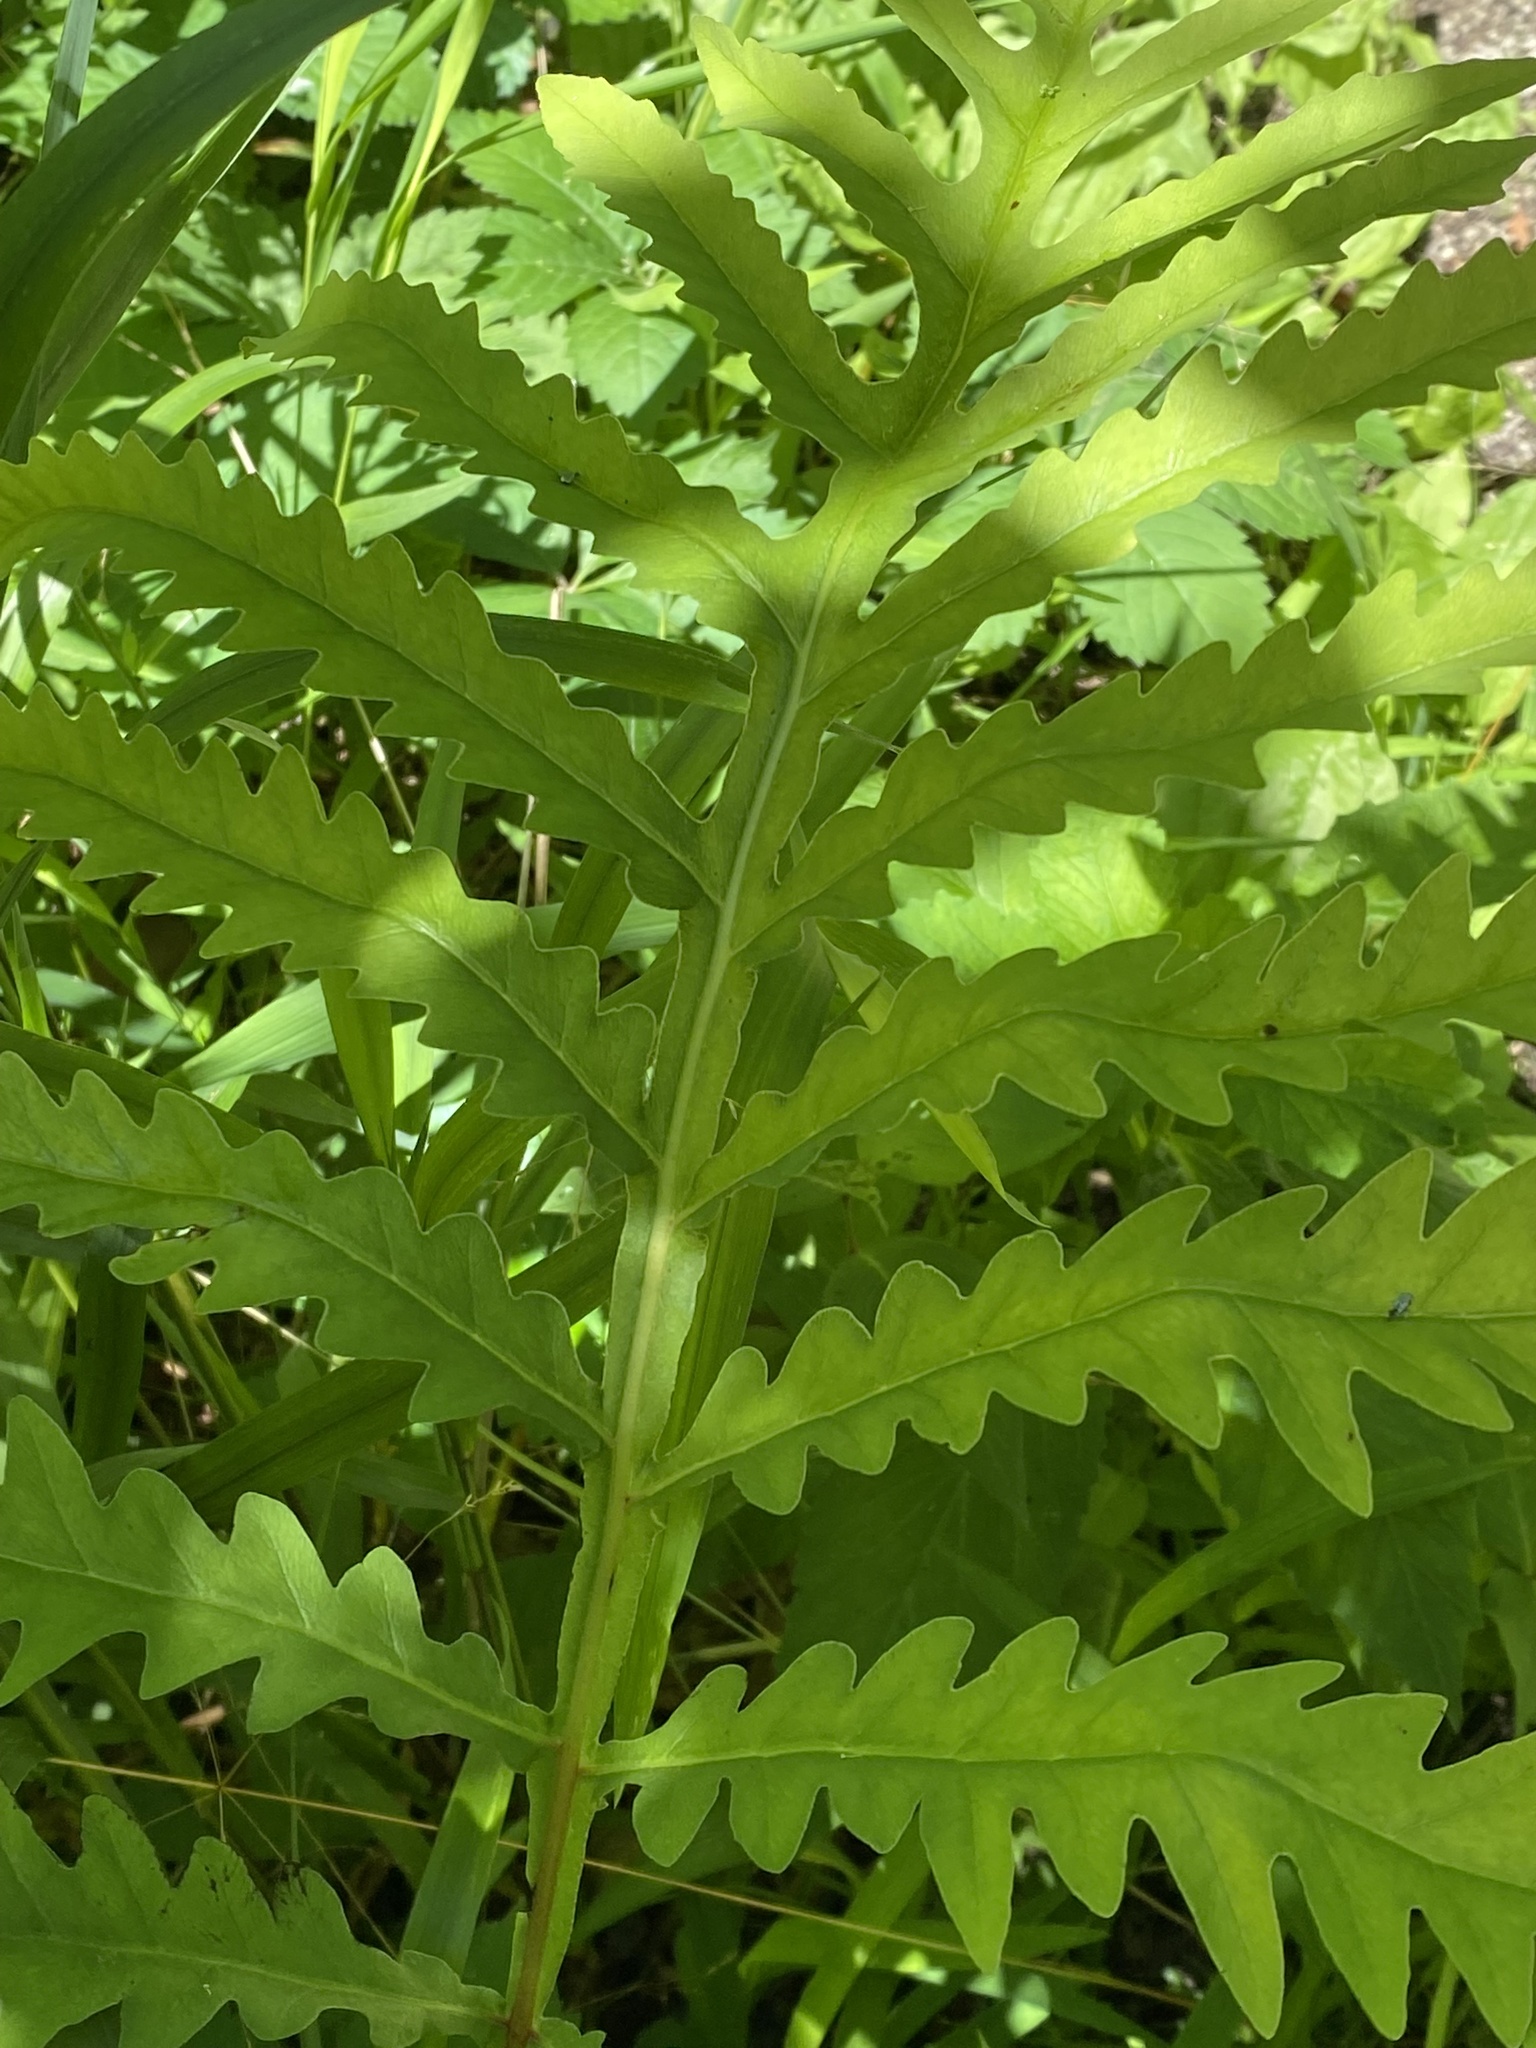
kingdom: Plantae
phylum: Tracheophyta
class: Polypodiopsida
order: Polypodiales
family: Onocleaceae
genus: Onoclea
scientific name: Onoclea sensibilis
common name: Sensitive fern
